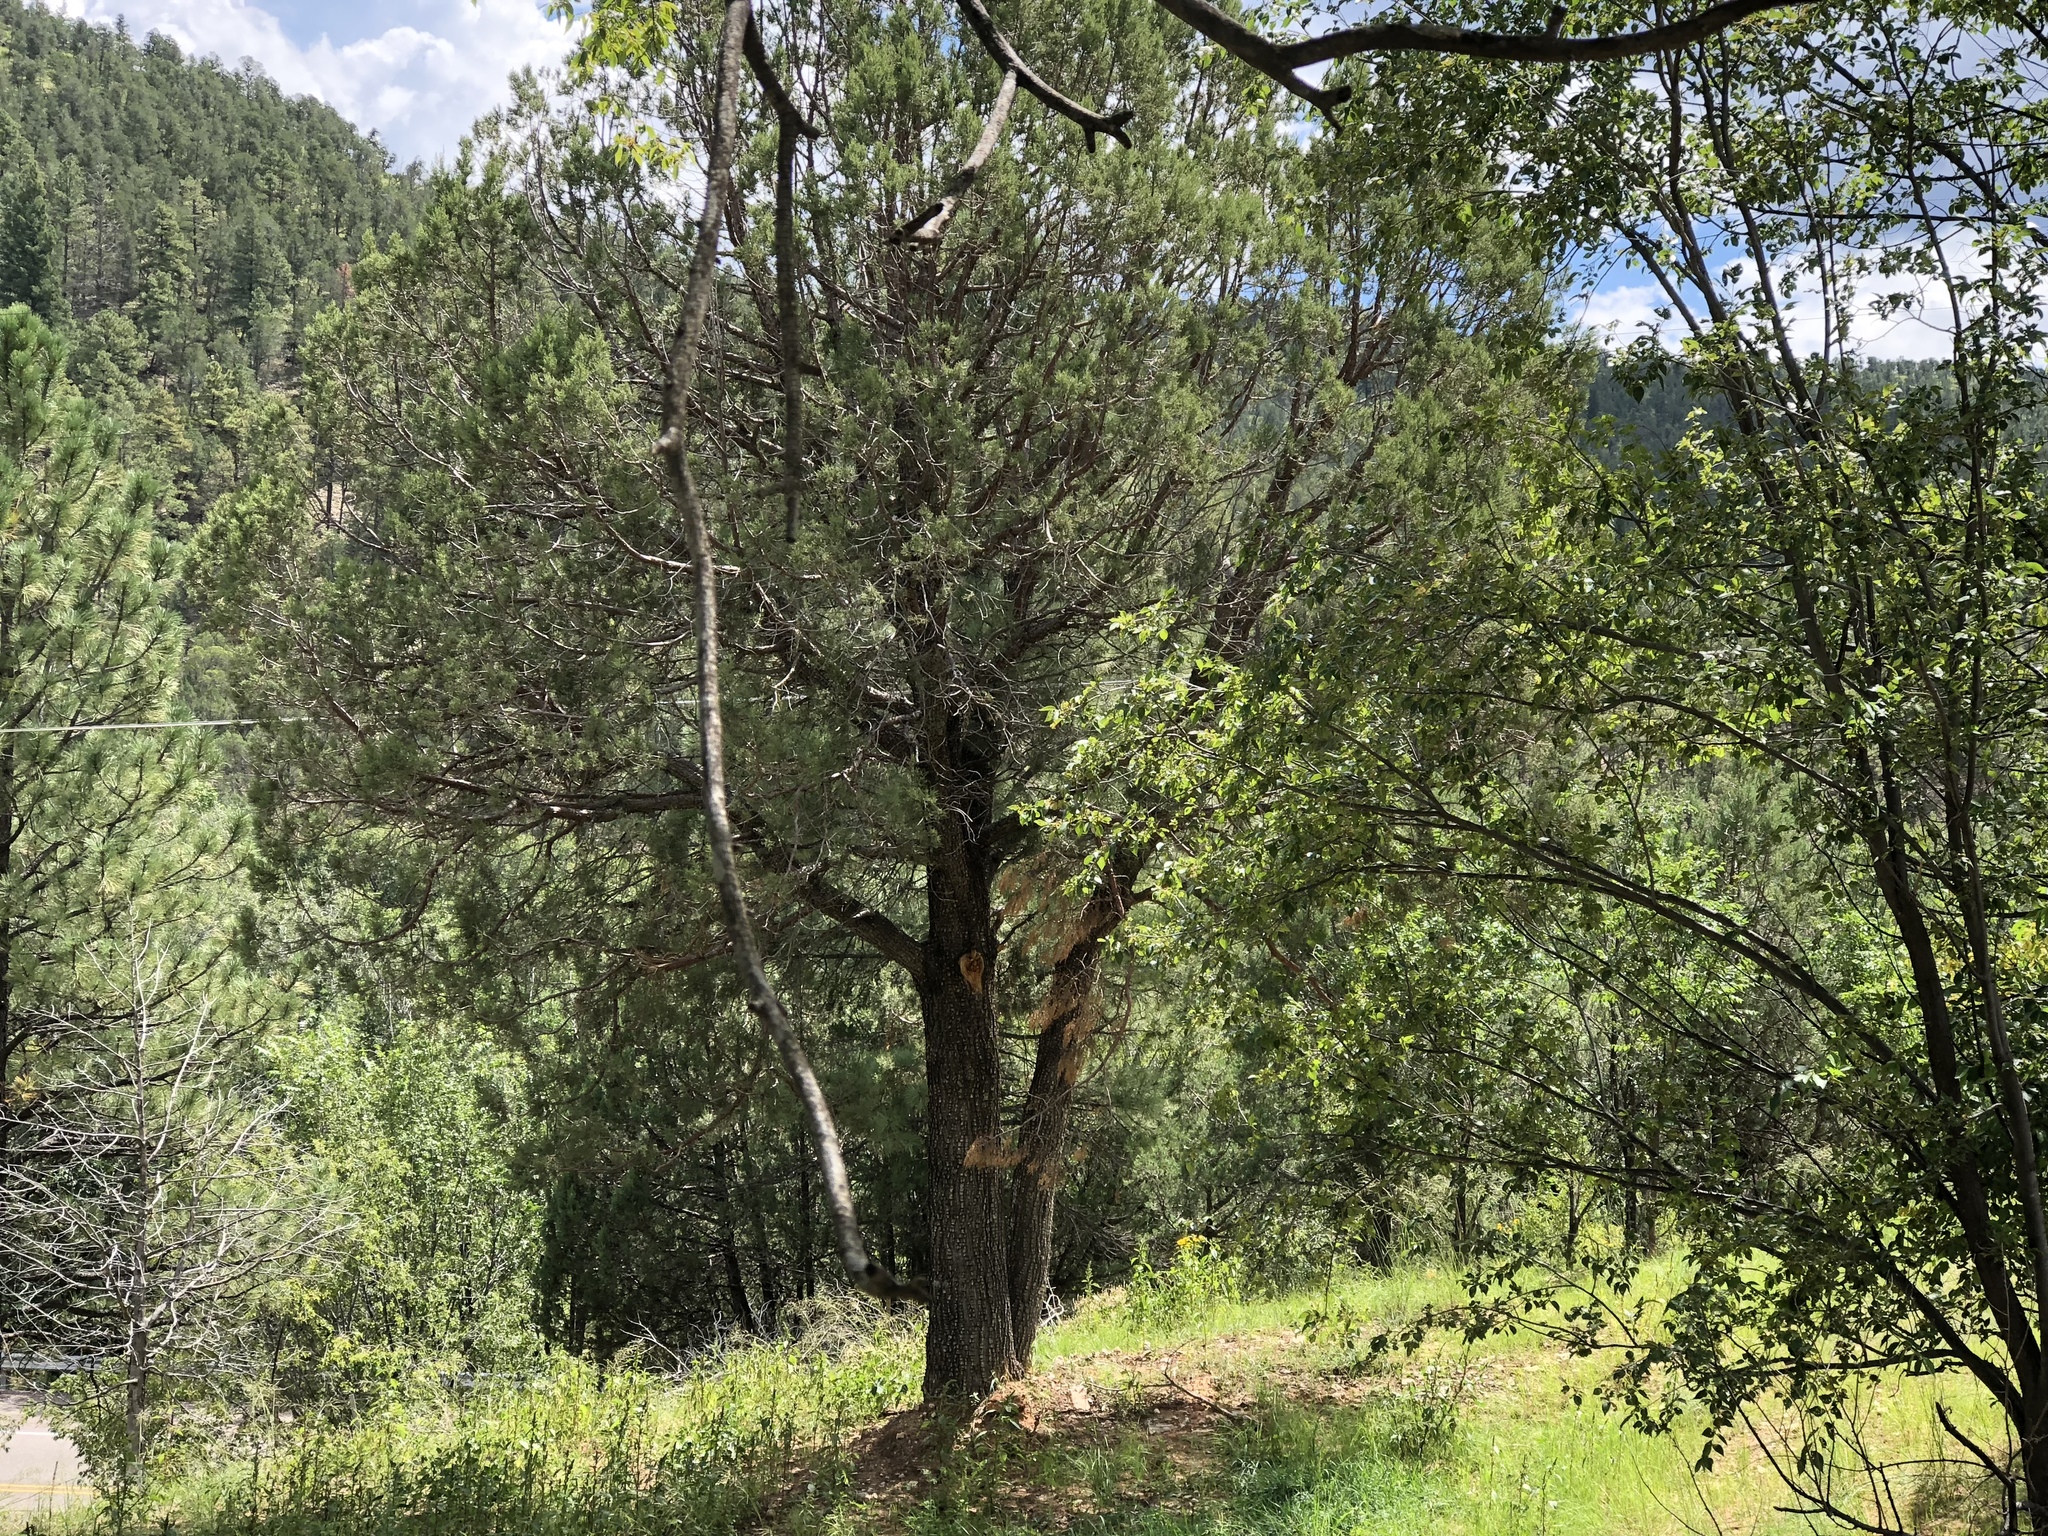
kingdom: Plantae
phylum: Tracheophyta
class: Pinopsida
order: Pinales
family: Cupressaceae
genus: Juniperus
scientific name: Juniperus deppeana
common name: Alligator juniper
